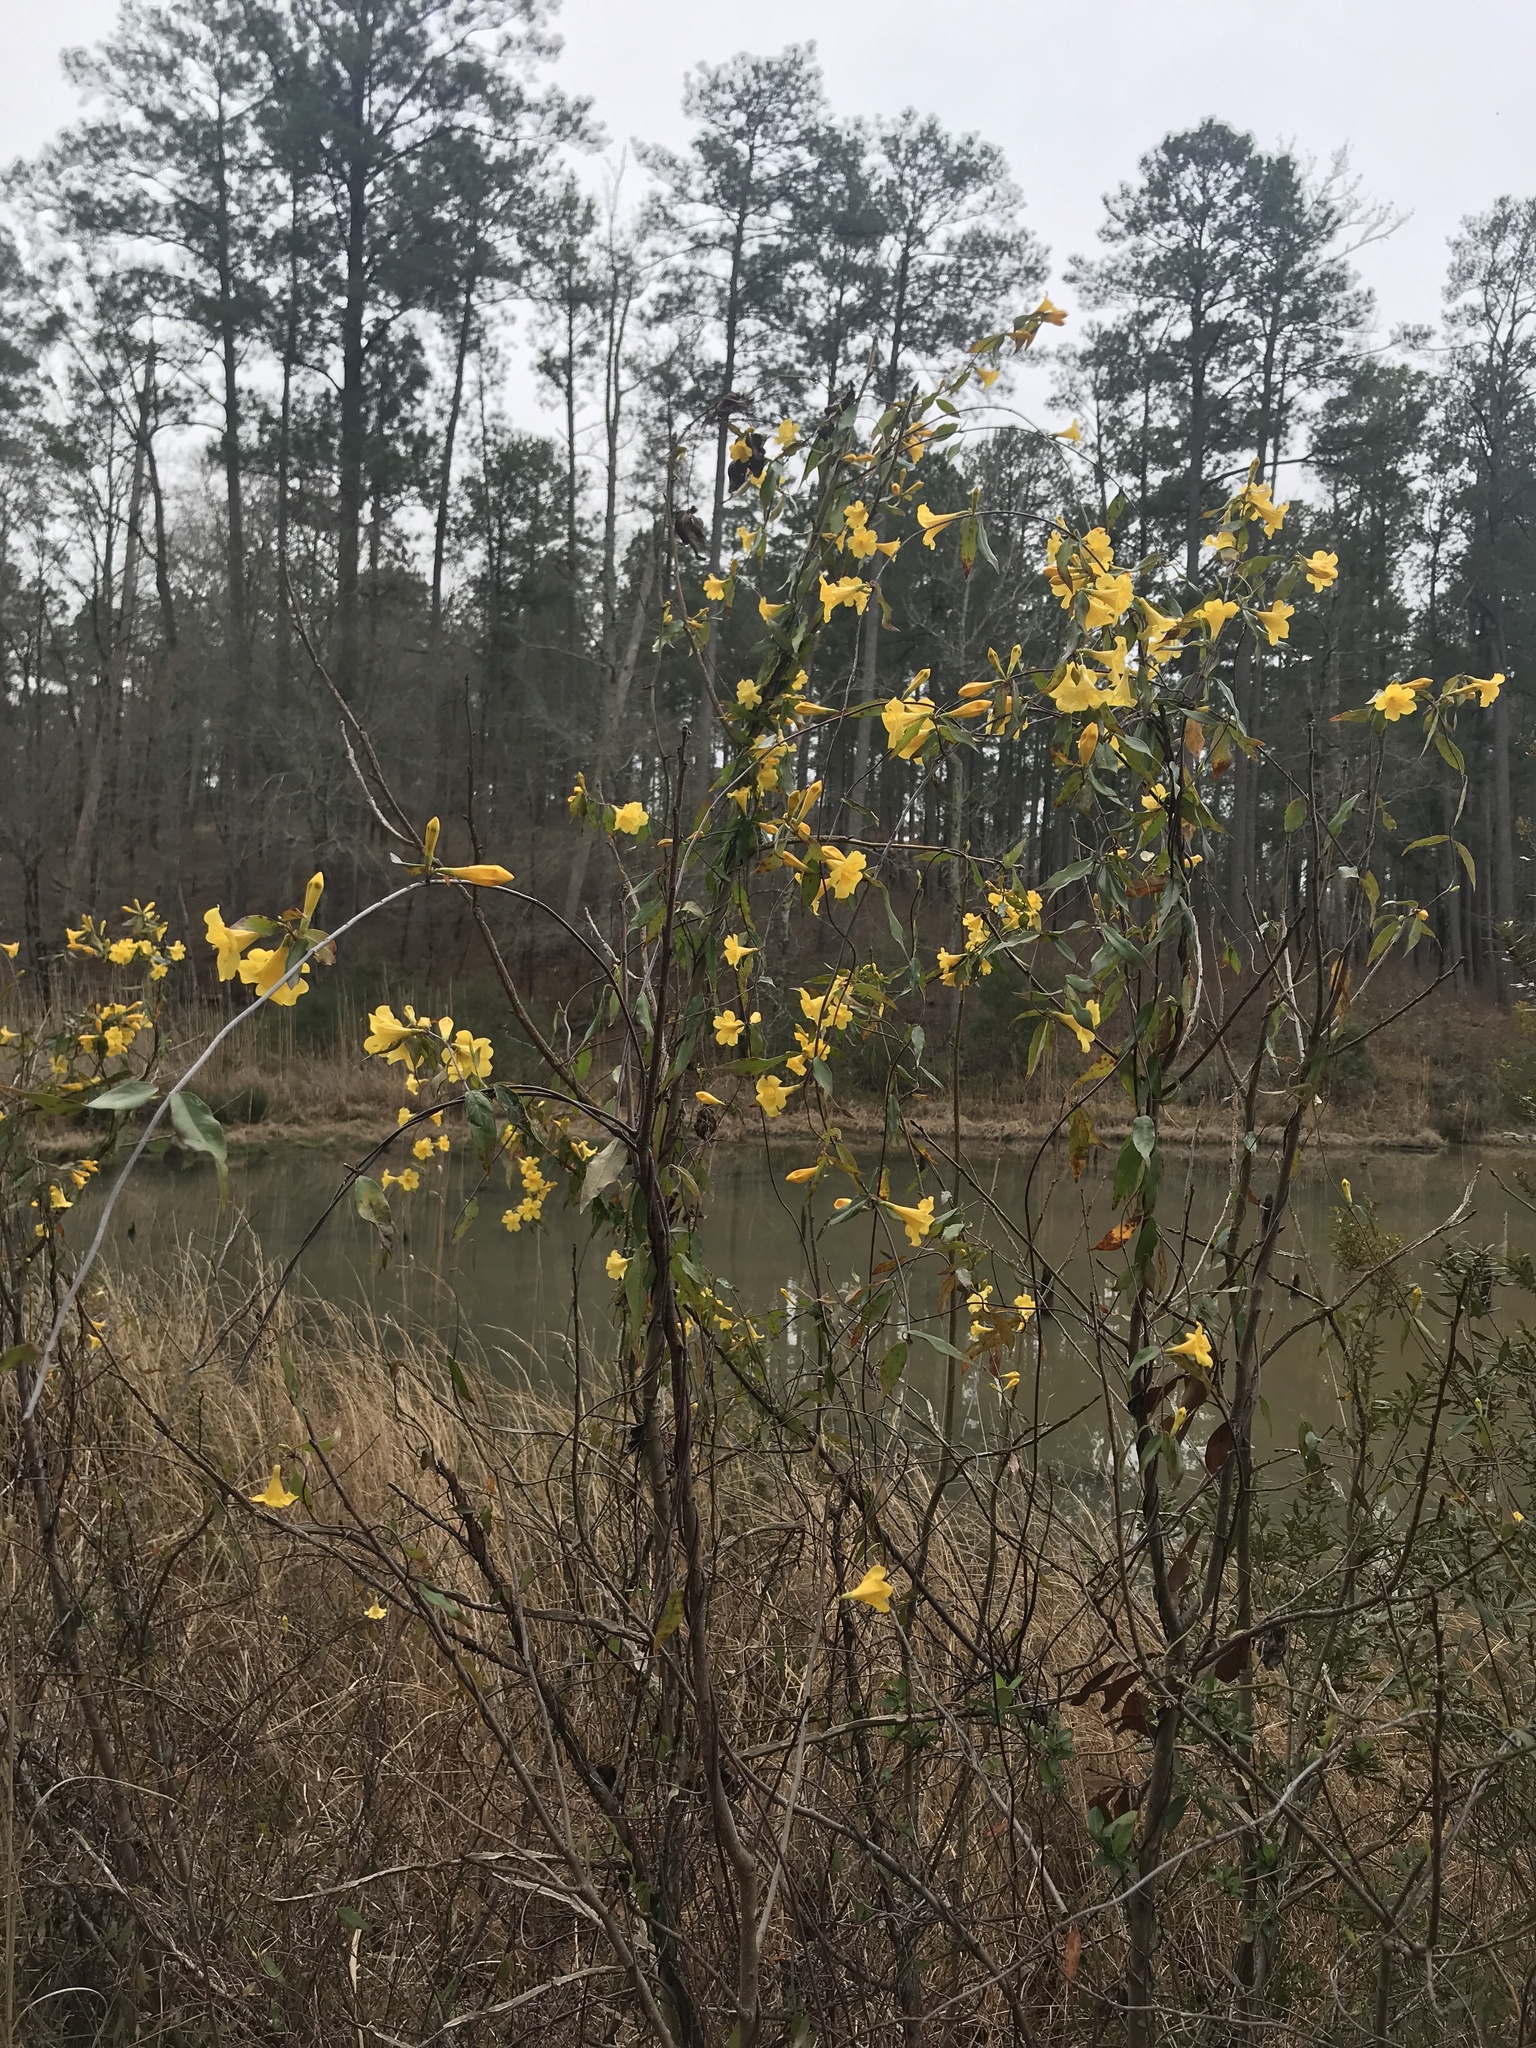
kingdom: Plantae
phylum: Tracheophyta
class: Magnoliopsida
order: Gentianales
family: Gelsemiaceae
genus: Gelsemium
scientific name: Gelsemium sempervirens
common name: Carolina-jasmine
